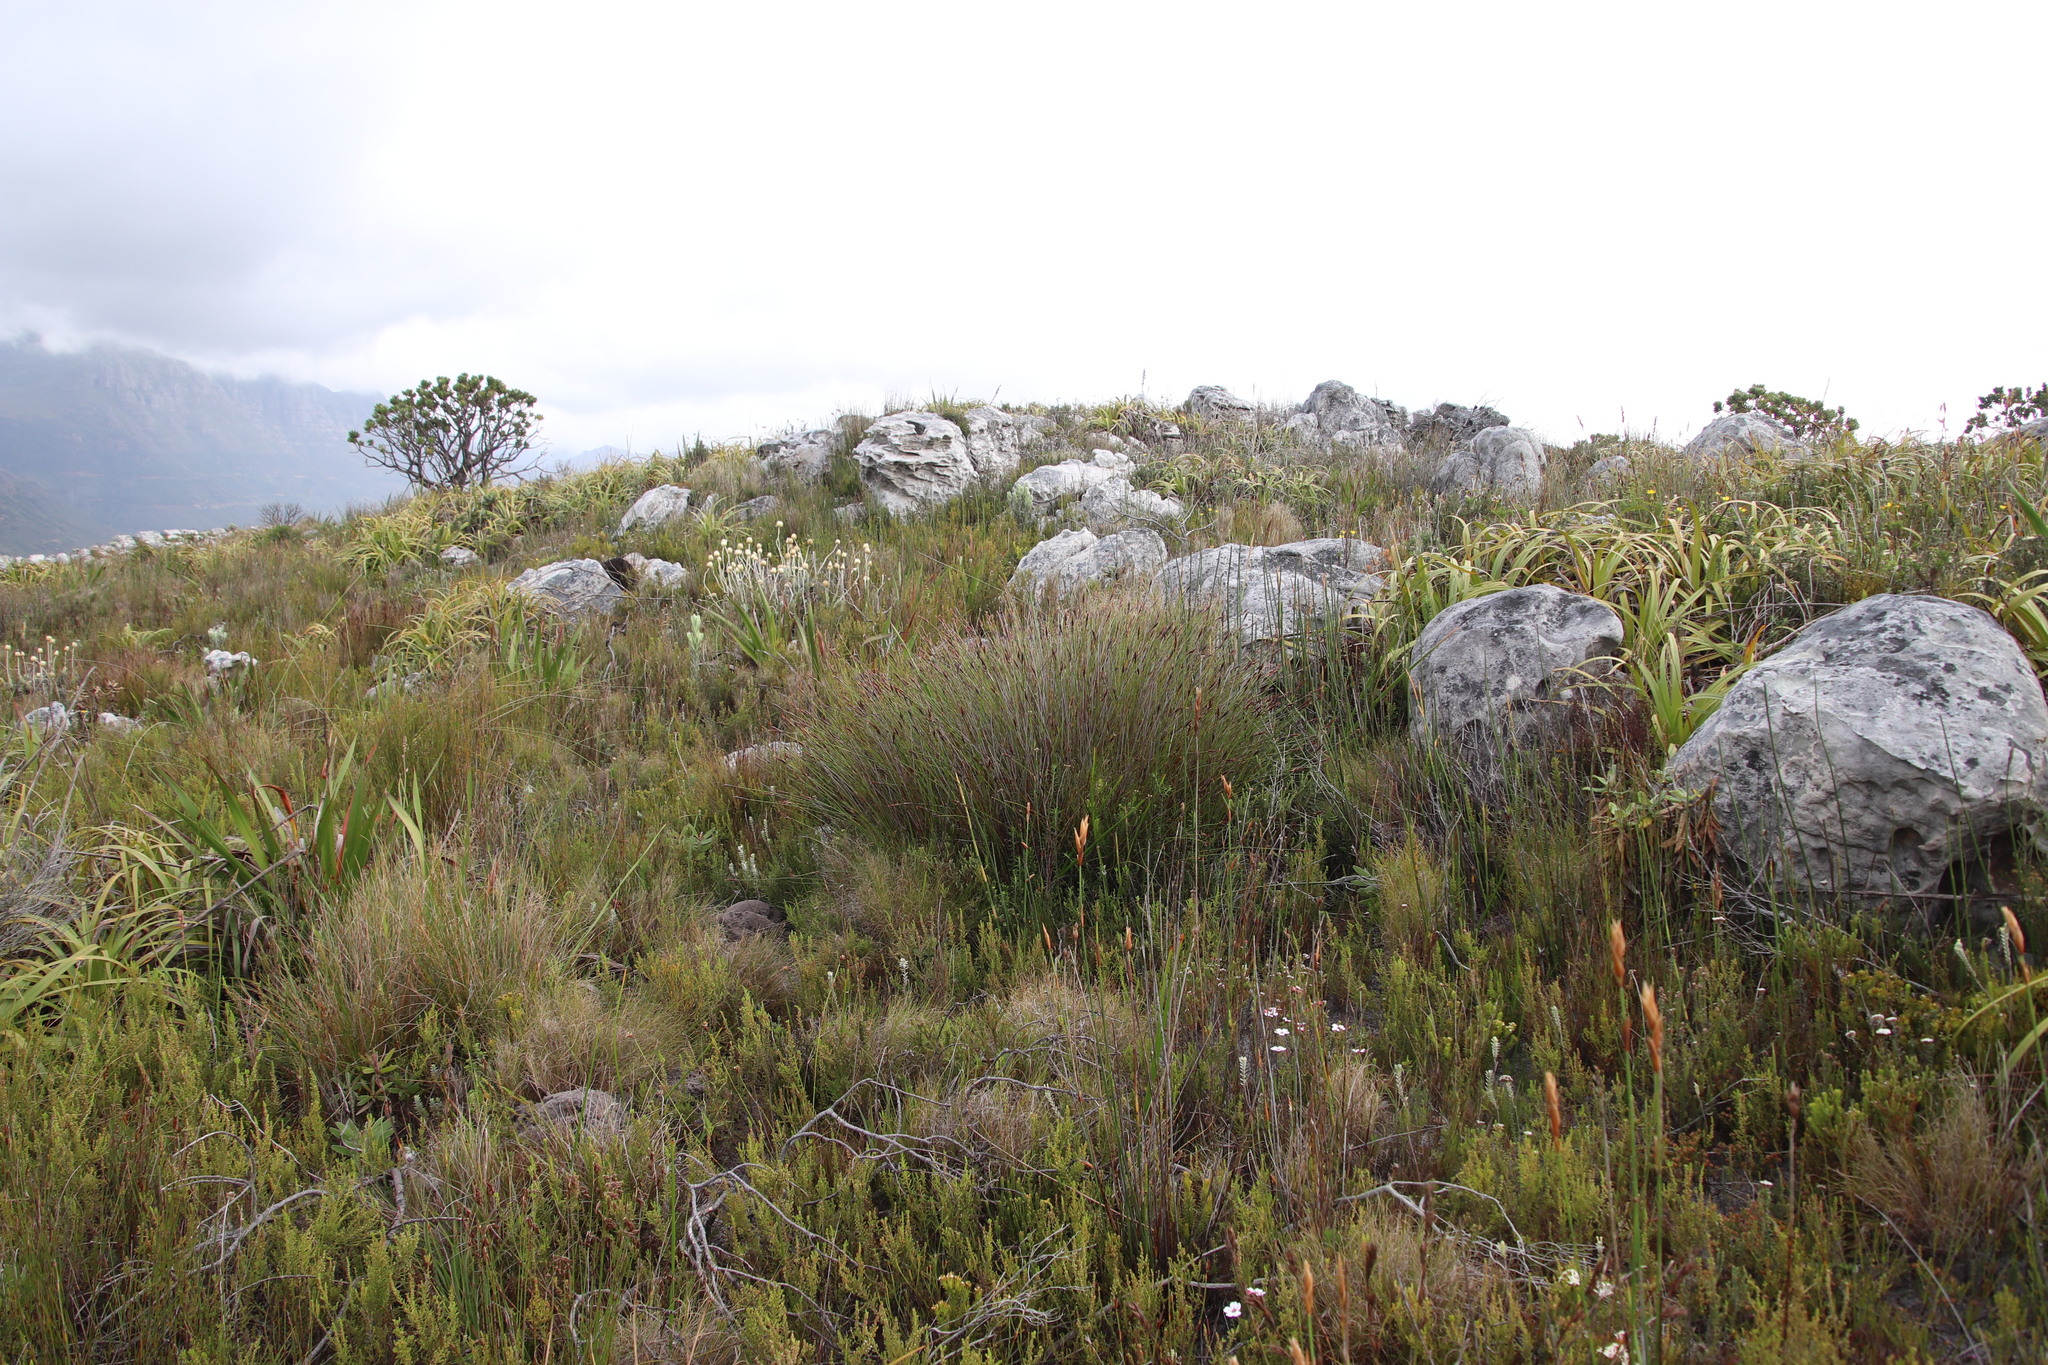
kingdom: Plantae
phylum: Tracheophyta
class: Liliopsida
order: Poales
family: Restionaceae
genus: Hypodiscus
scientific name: Hypodiscus aristatus
